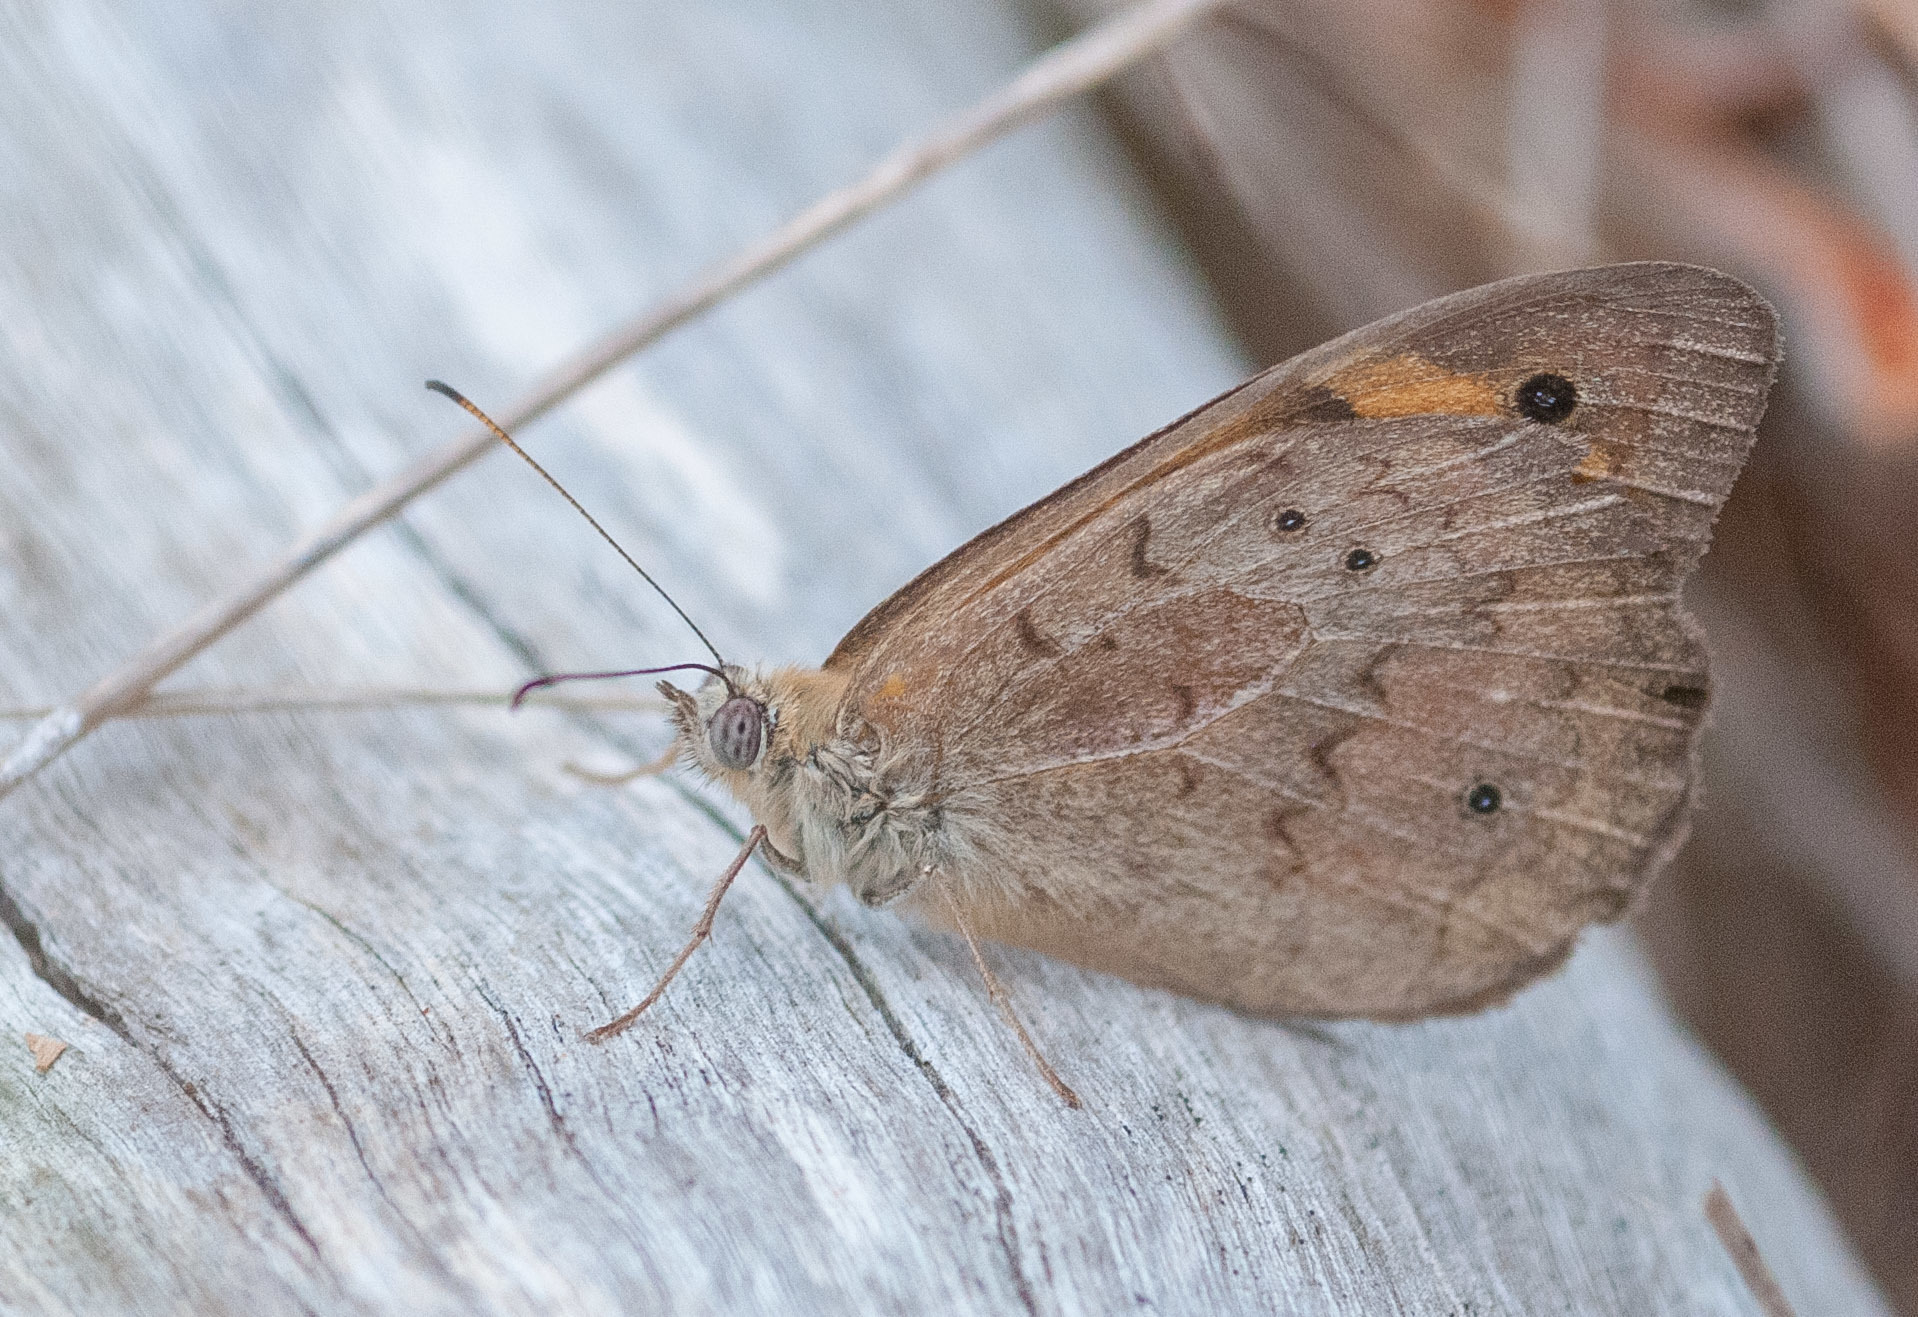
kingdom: Animalia
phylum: Arthropoda
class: Insecta
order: Lepidoptera
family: Nymphalidae
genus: Heteronympha
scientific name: Heteronympha merope
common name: Common brown
